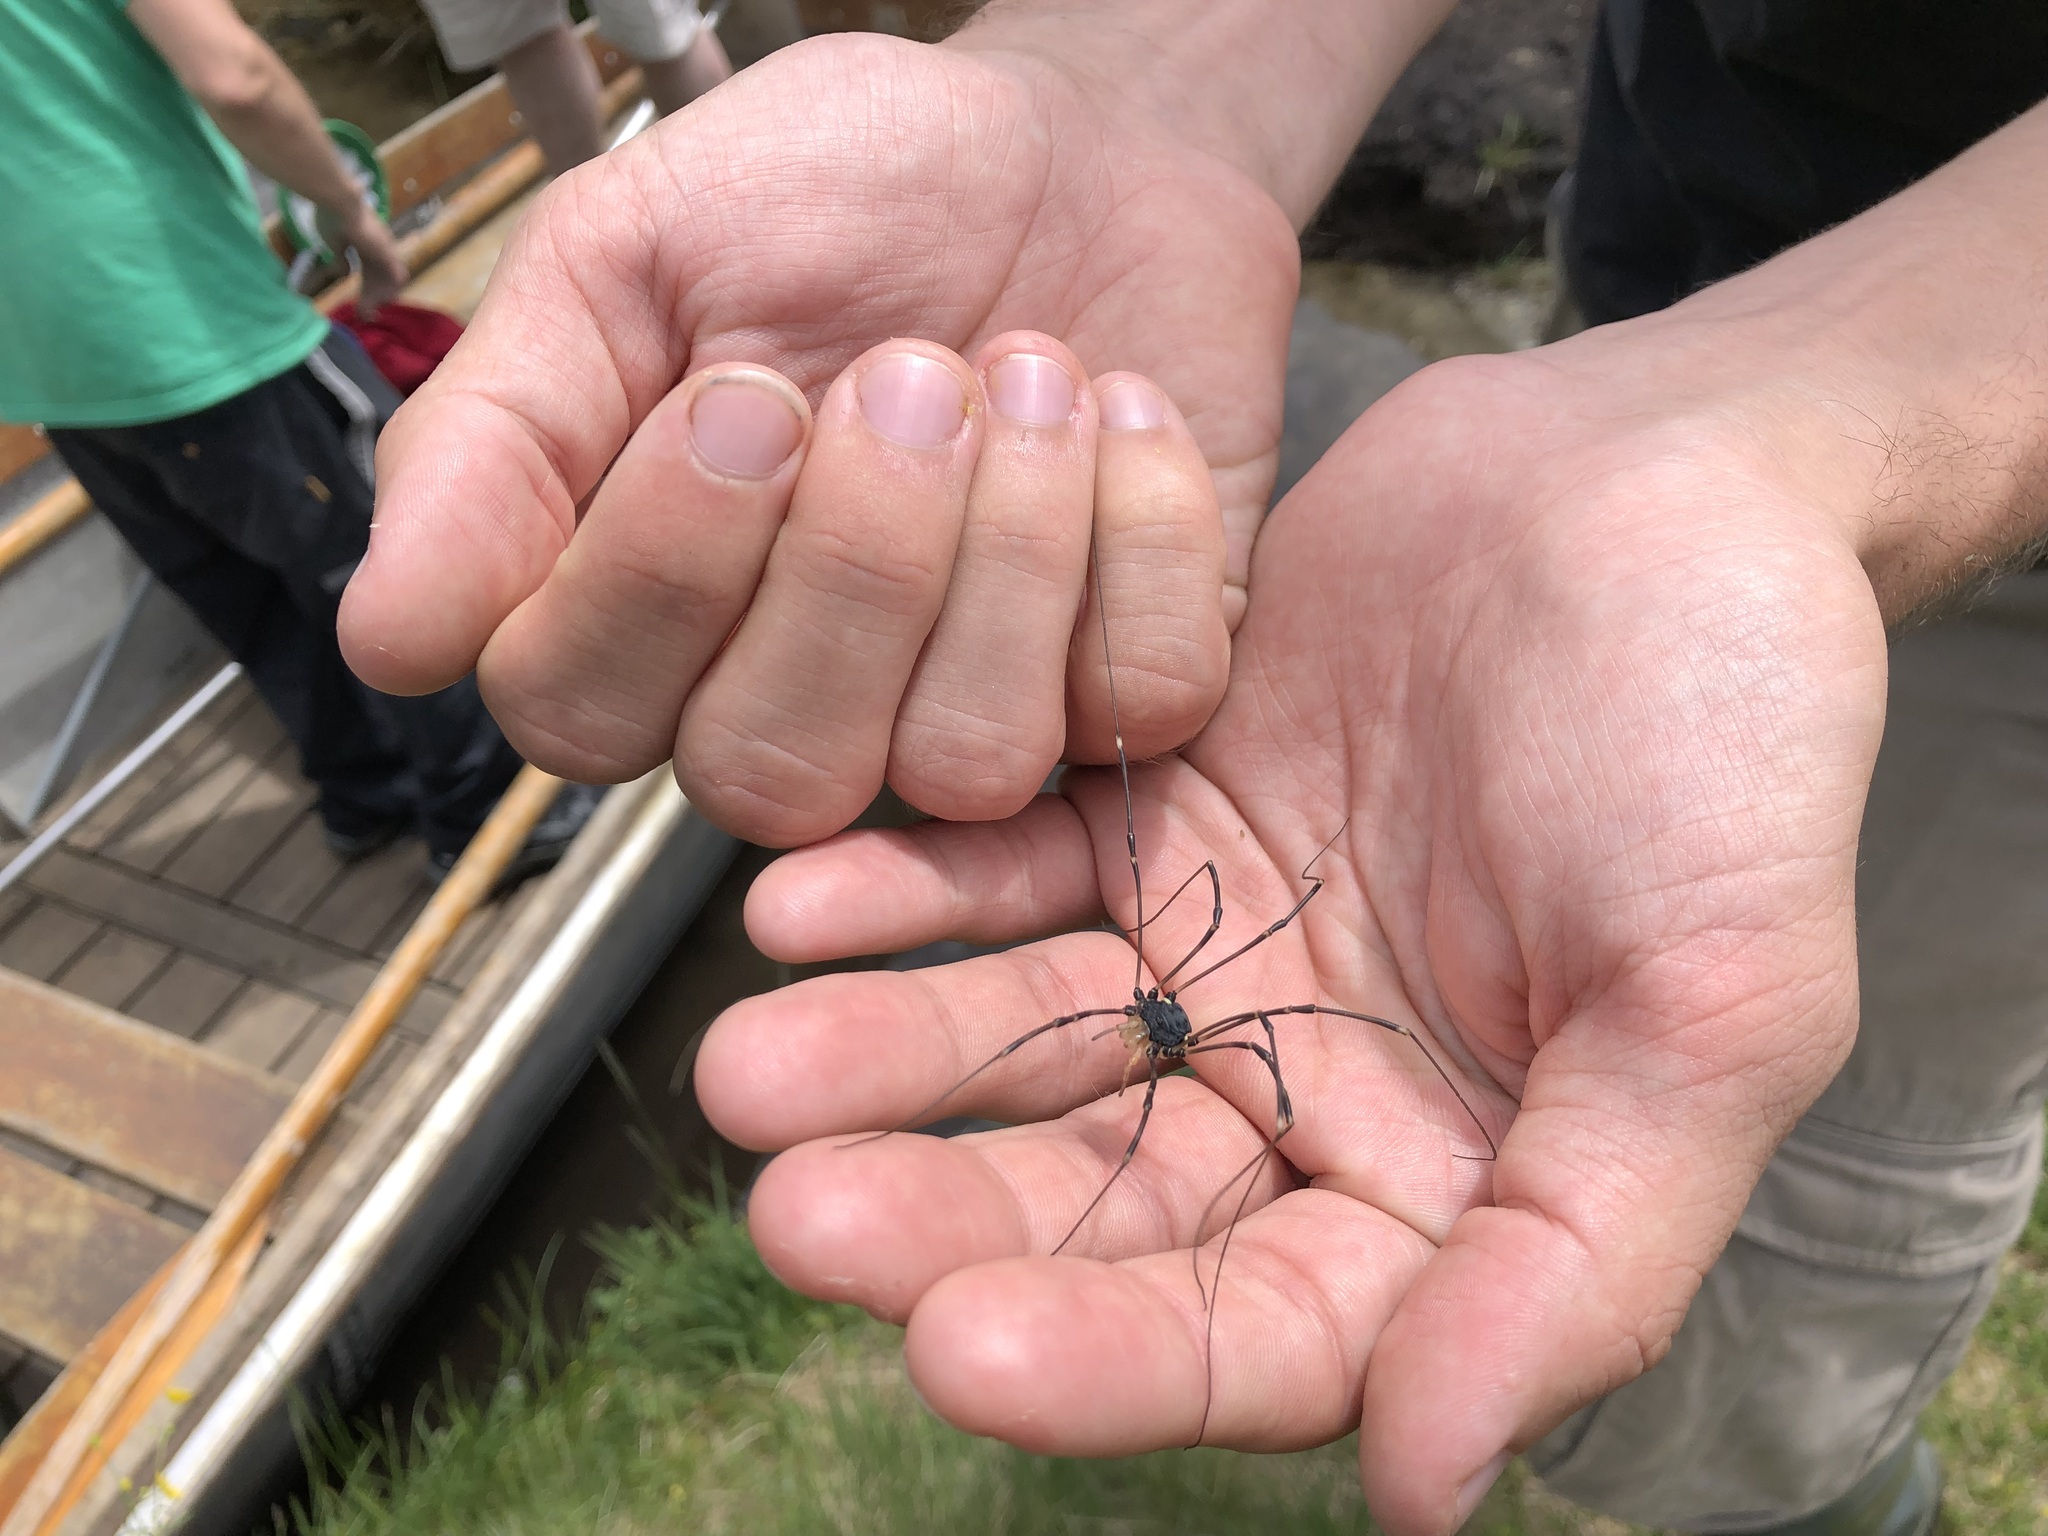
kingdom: Animalia
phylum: Arthropoda
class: Arachnida
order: Opiliones
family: Sclerosomatidae
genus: Gyas
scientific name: Gyas titanus
